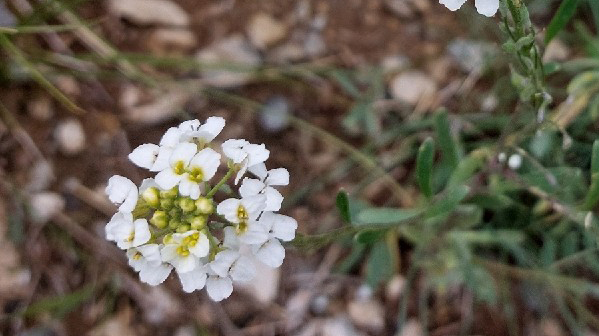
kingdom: Plantae
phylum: Tracheophyta
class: Magnoliopsida
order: Brassicales
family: Brassicaceae
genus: Stevenia
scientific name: Stevenia canescens
